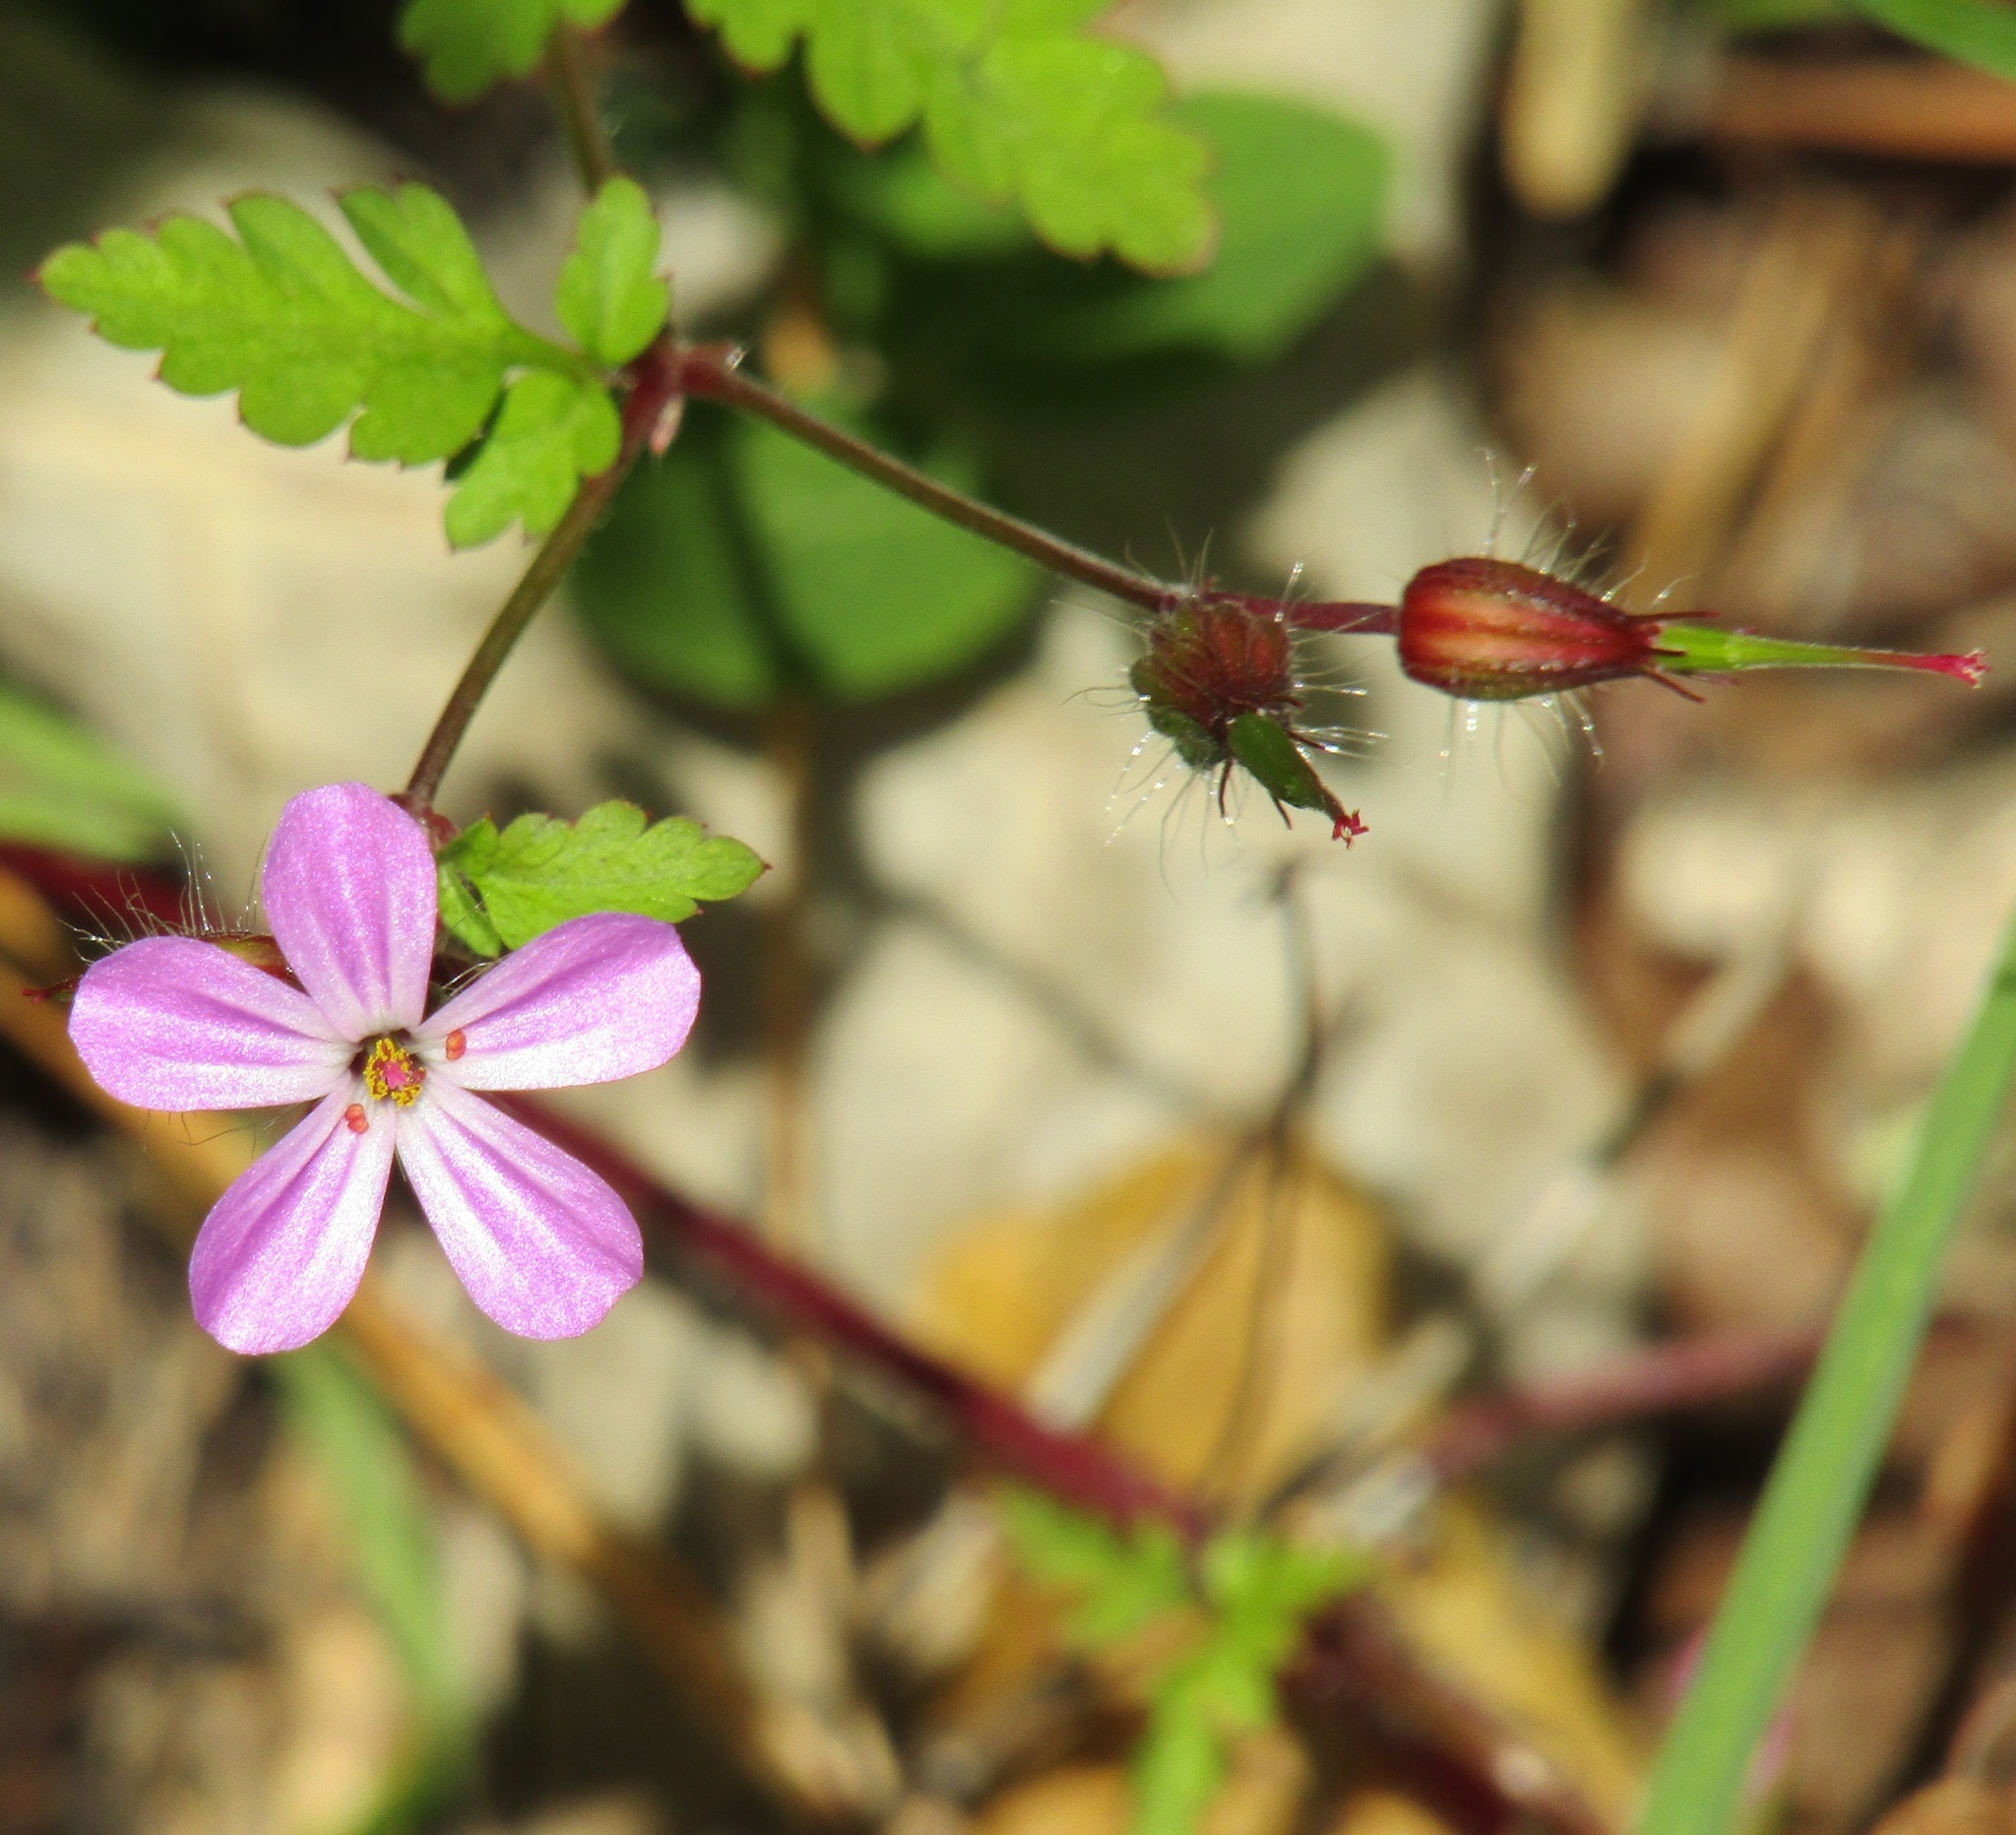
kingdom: Plantae
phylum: Tracheophyta
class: Magnoliopsida
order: Geraniales
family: Geraniaceae
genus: Geranium
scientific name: Geranium robertianum
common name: Herb-robert
